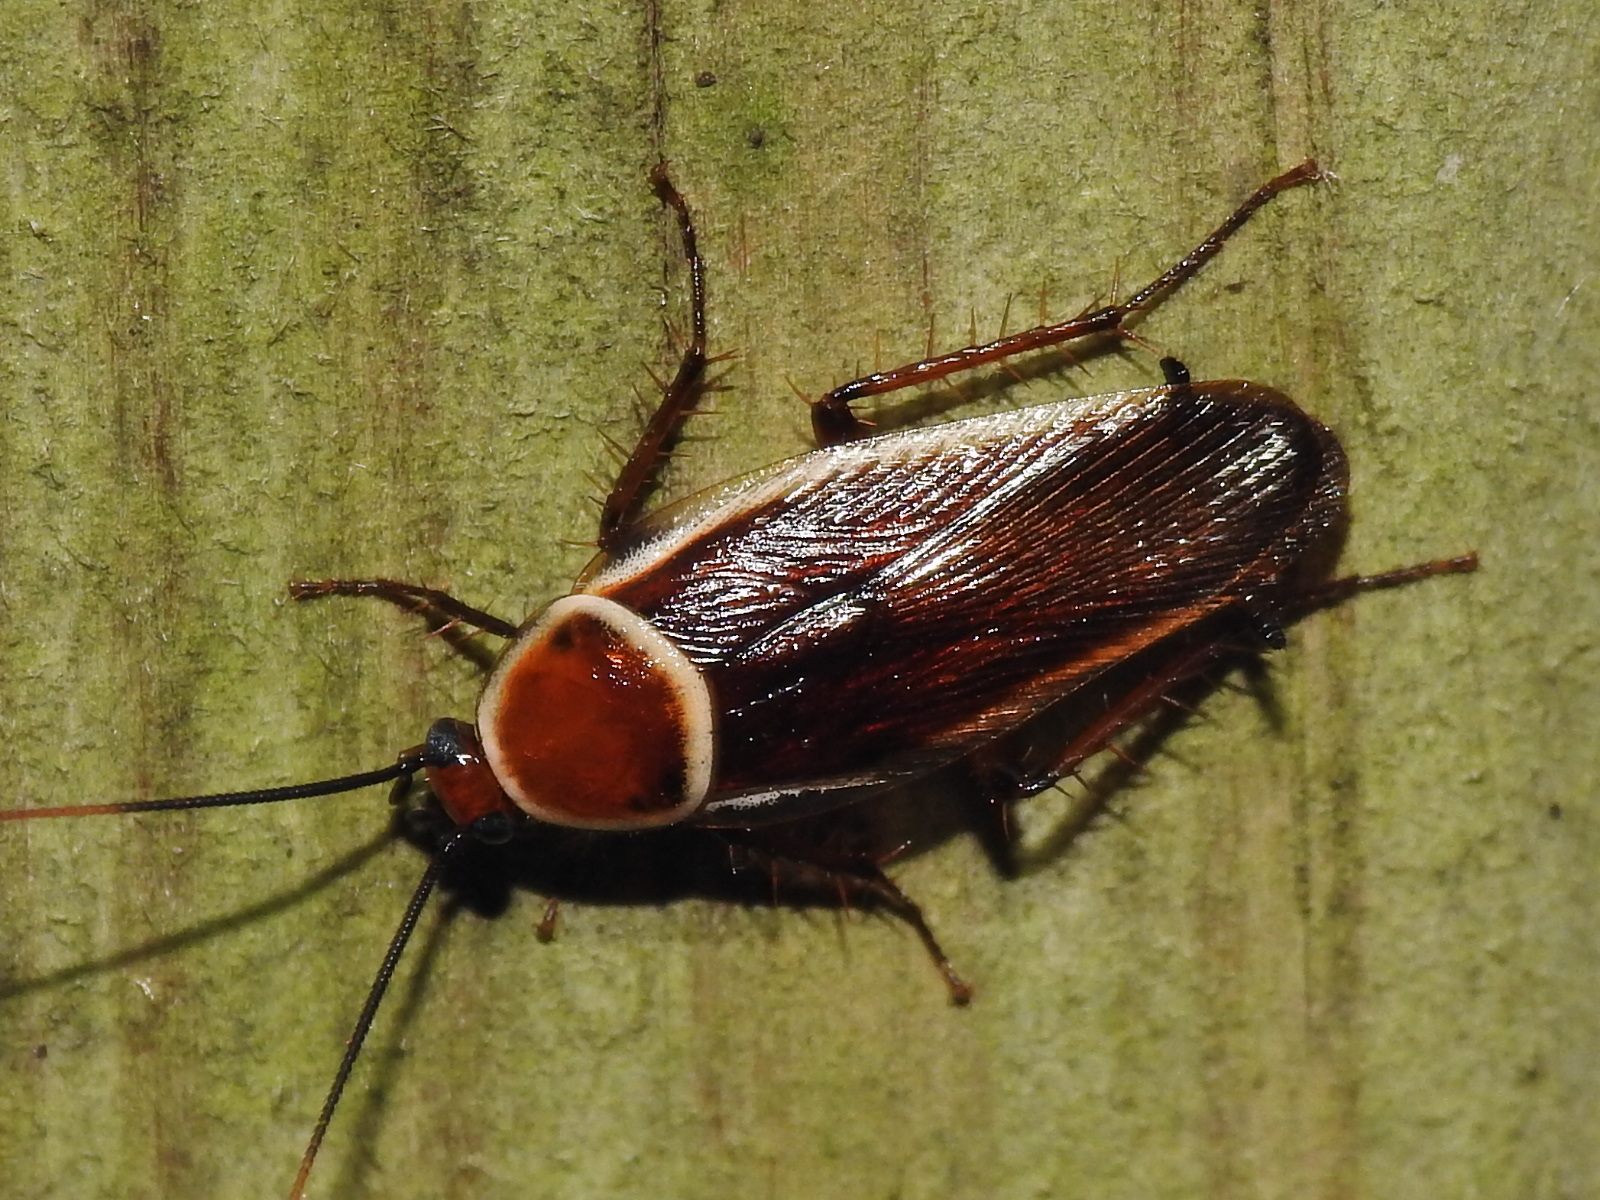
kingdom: Animalia
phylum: Arthropoda
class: Insecta
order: Blattodea
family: Ectobiidae
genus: Pseudomops
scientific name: Pseudomops septentrionalis
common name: Pale-bordered field cockroach
